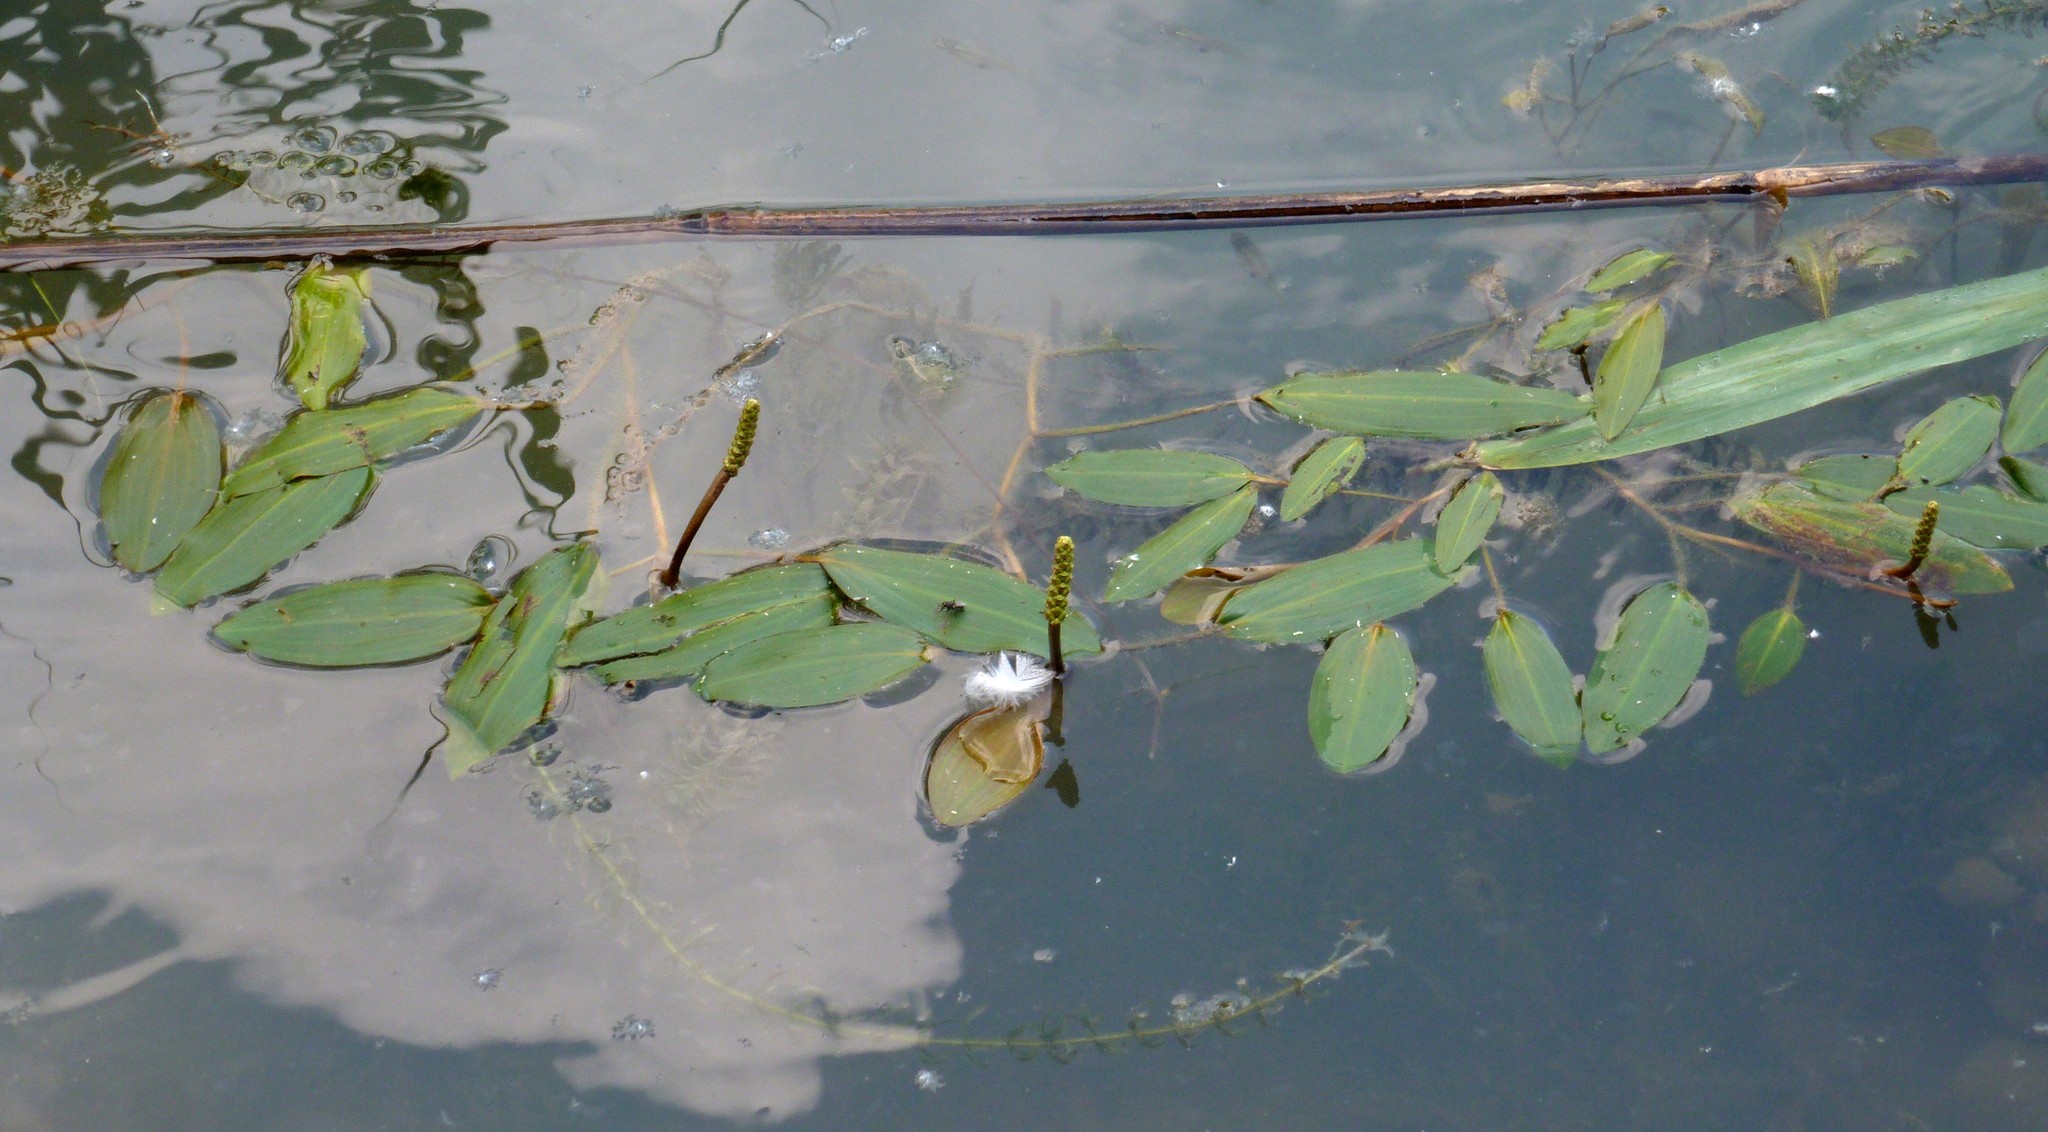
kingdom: Plantae
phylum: Tracheophyta
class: Liliopsida
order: Alismatales
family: Potamogetonaceae
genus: Potamogeton
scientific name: Potamogeton nodosus
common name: Loddon pondweed
